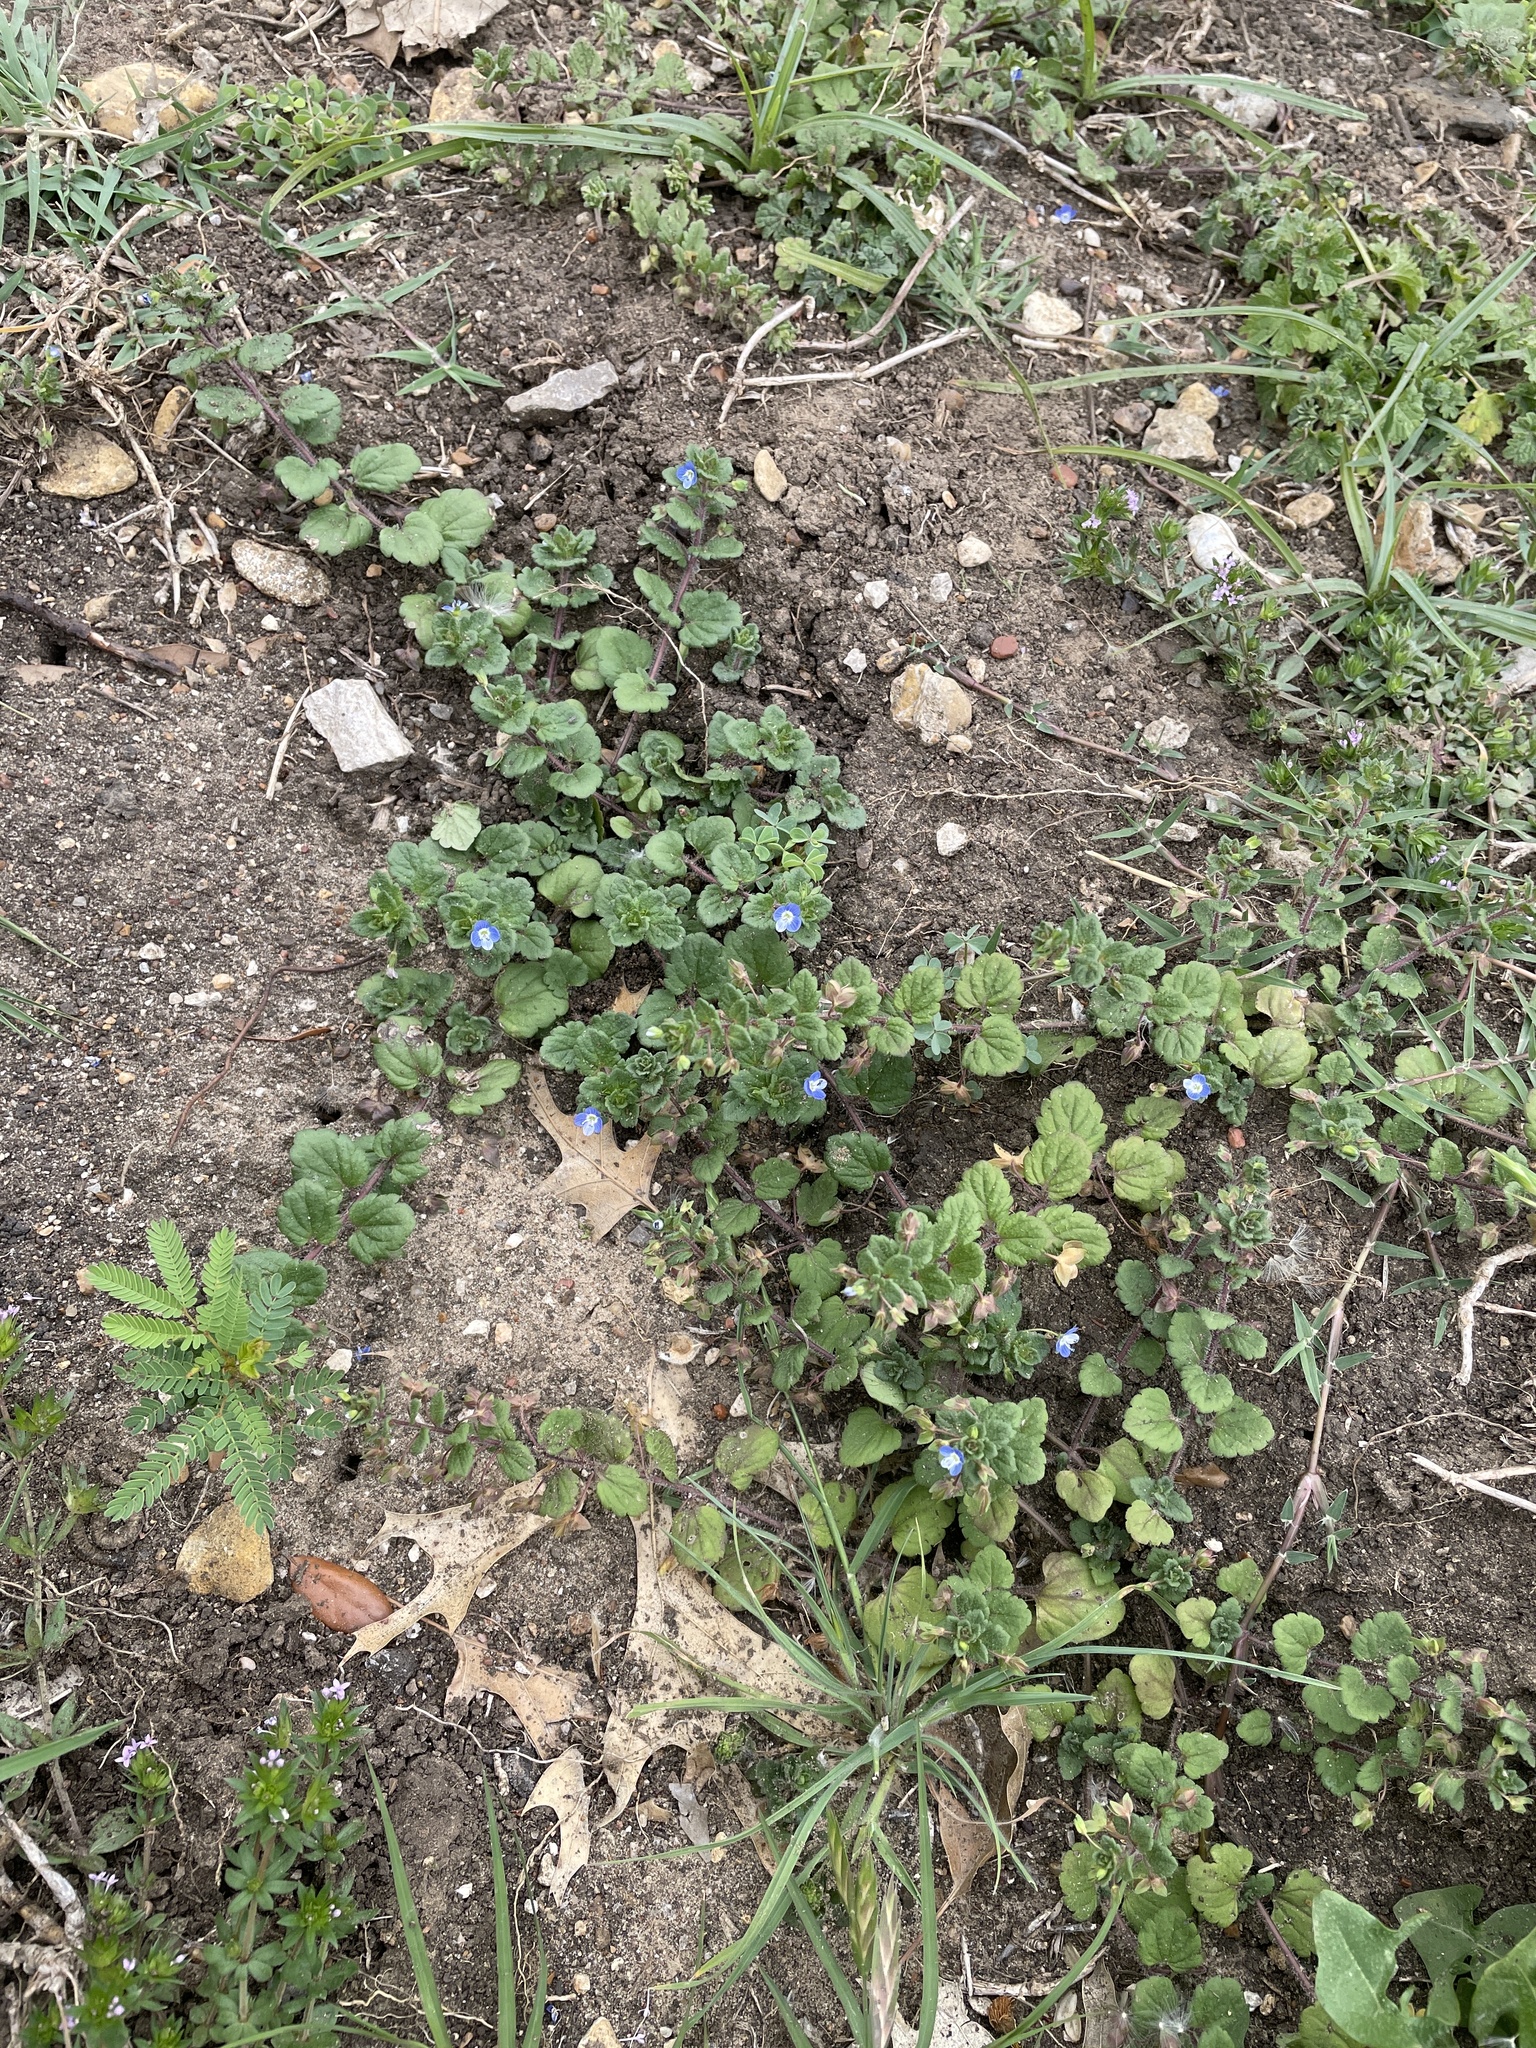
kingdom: Plantae
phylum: Tracheophyta
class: Magnoliopsida
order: Lamiales
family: Plantaginaceae
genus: Veronica
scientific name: Veronica persica
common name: Common field-speedwell
